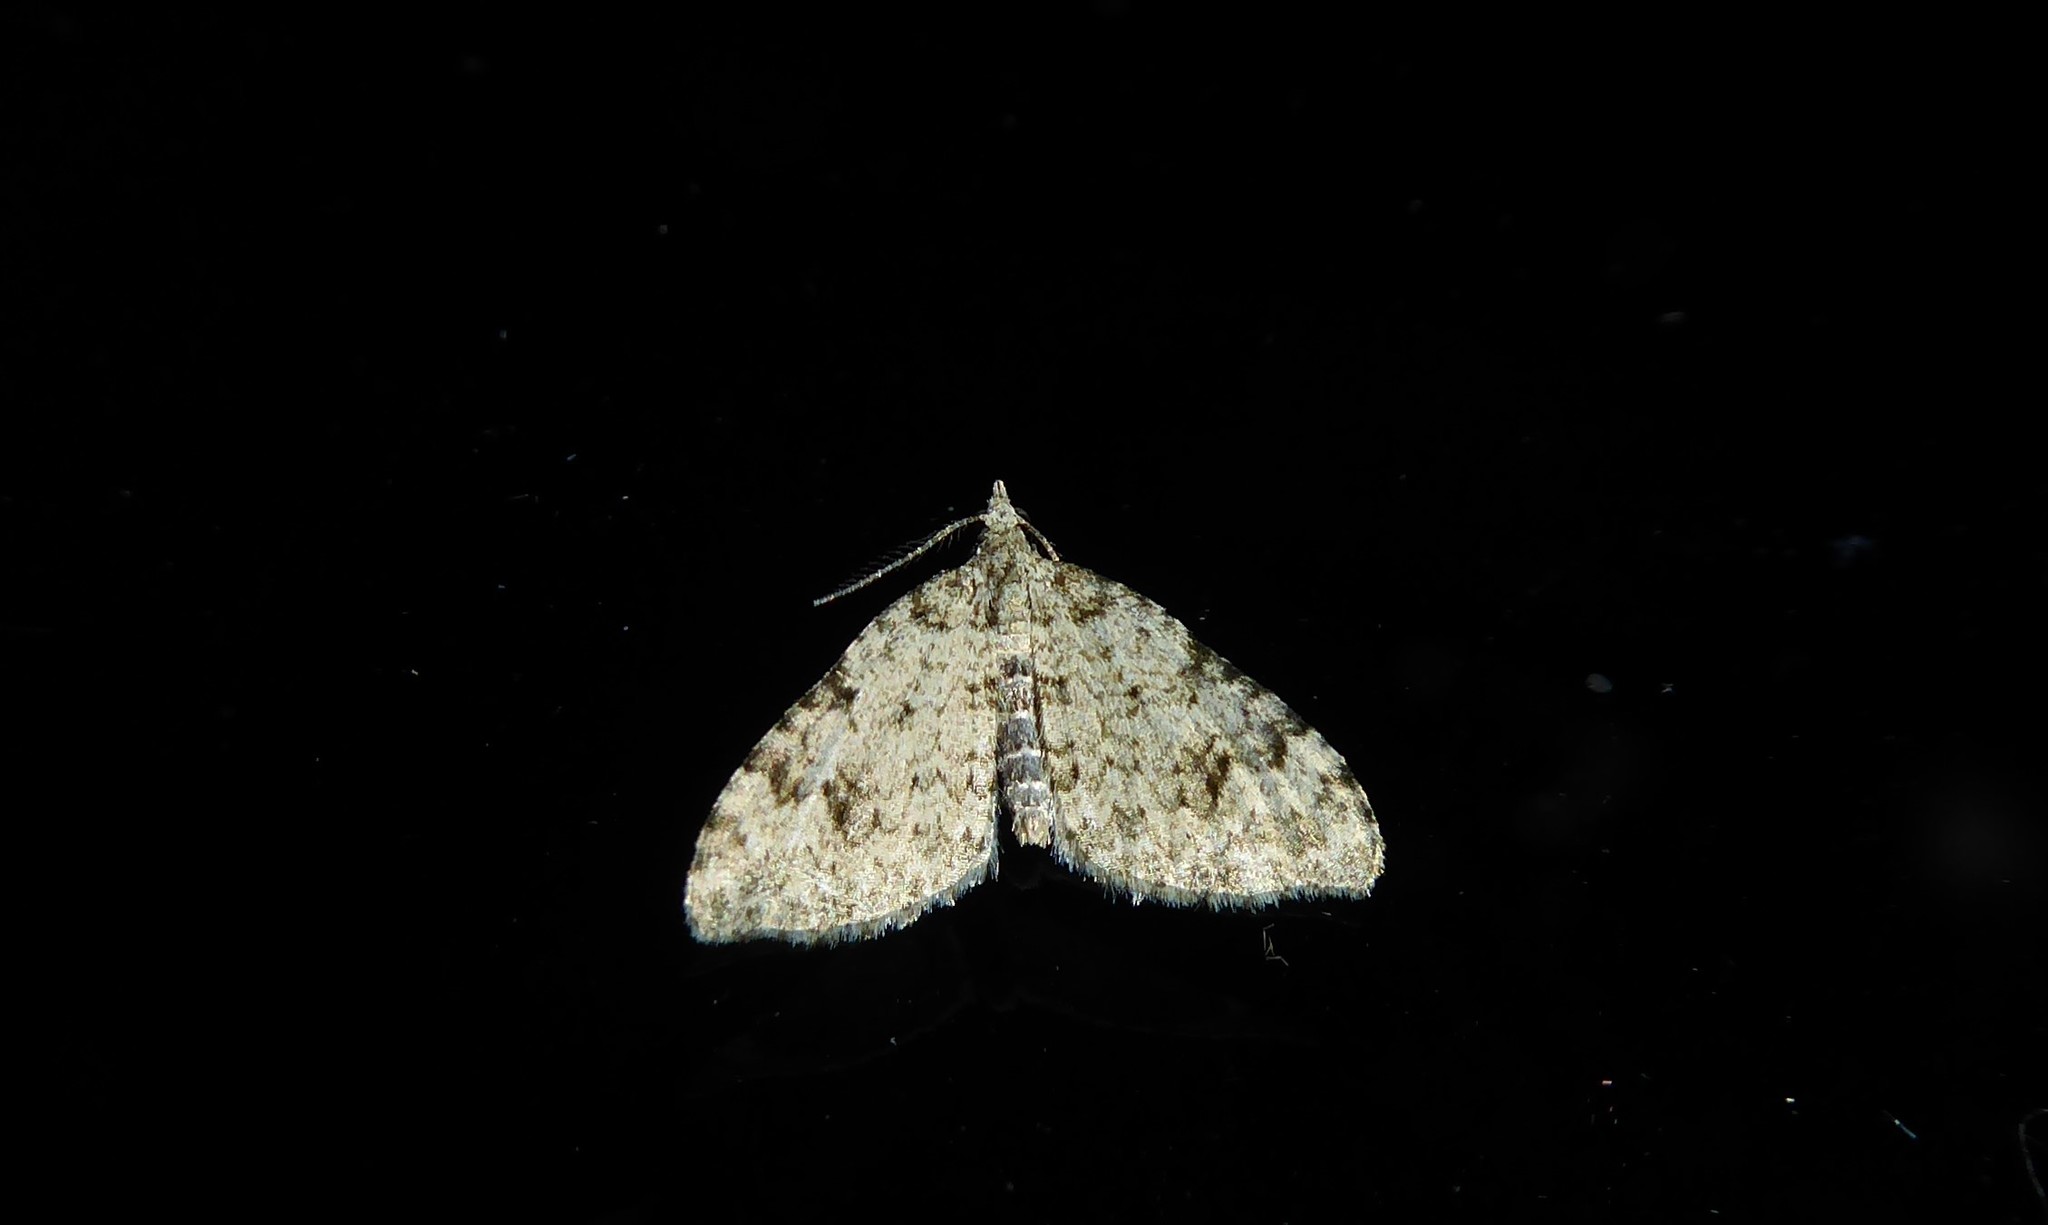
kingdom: Animalia
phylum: Arthropoda
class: Insecta
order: Lepidoptera
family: Geometridae
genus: Helastia
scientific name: Helastia cinerearia
